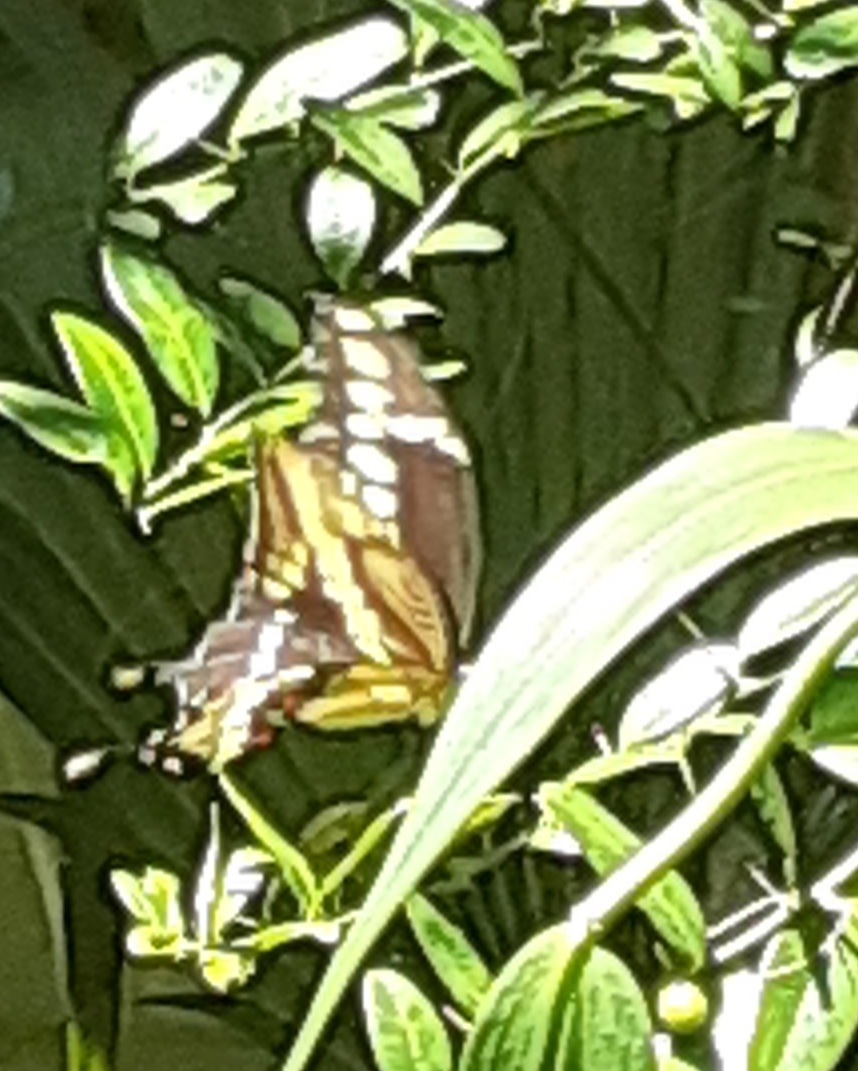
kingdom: Animalia
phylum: Arthropoda
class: Insecta
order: Lepidoptera
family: Papilionidae
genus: Papilio
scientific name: Papilio cresphontes
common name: Giant swallowtail
